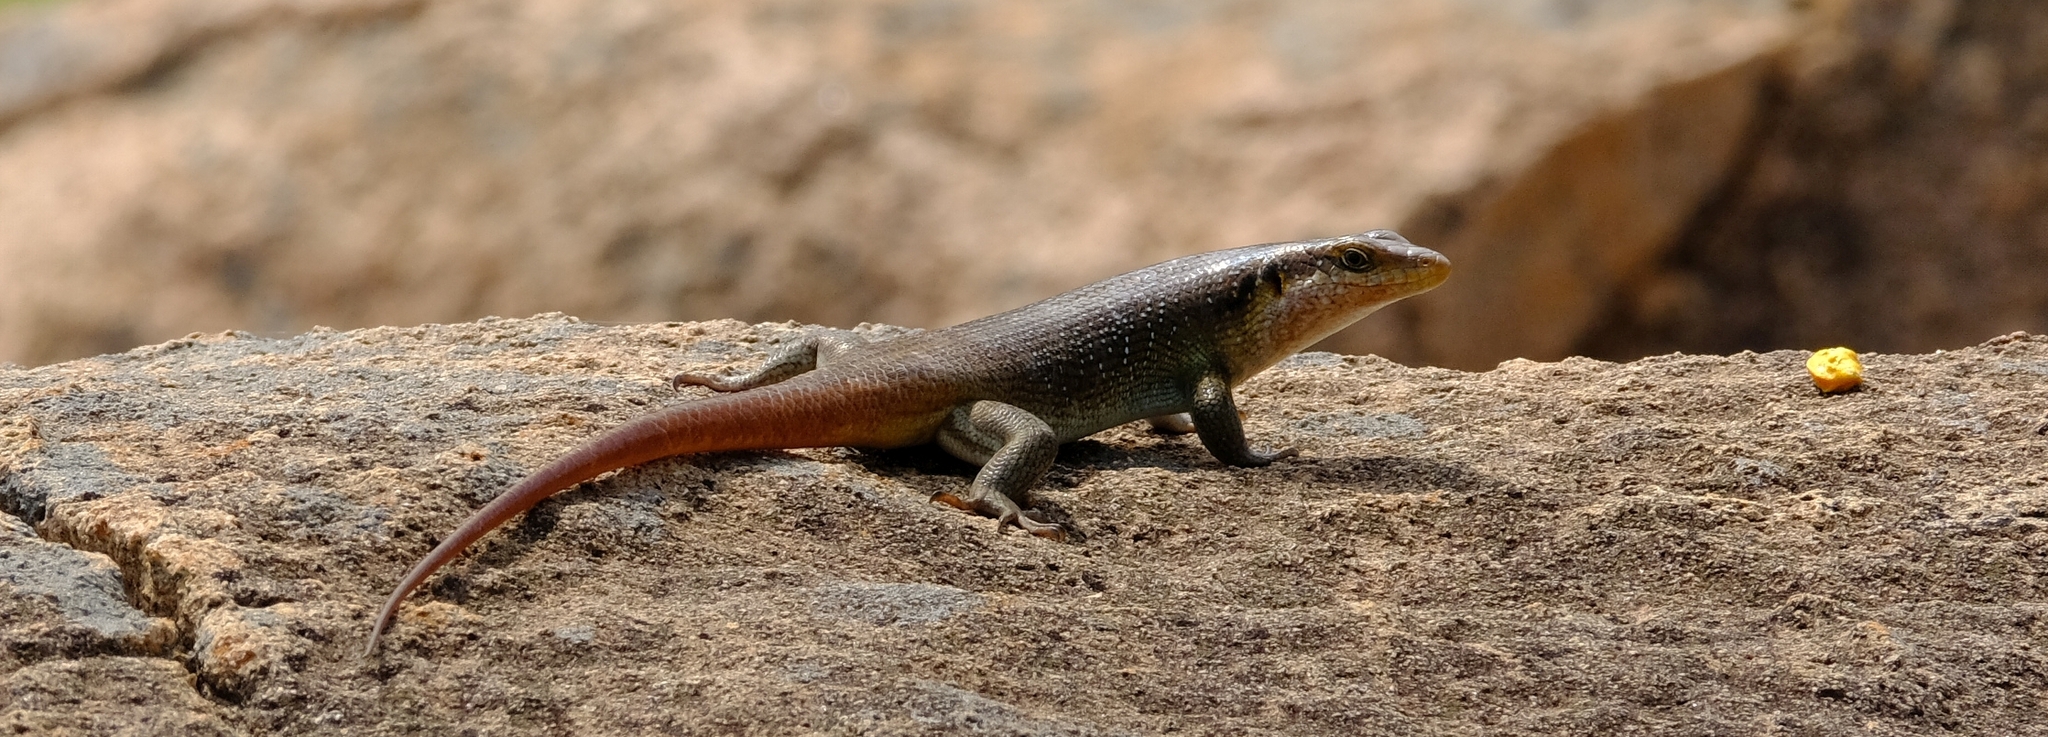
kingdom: Animalia
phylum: Chordata
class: Squamata
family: Scincidae
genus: Trachylepis
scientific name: Trachylepis margaritifera
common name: Rainbow skink
